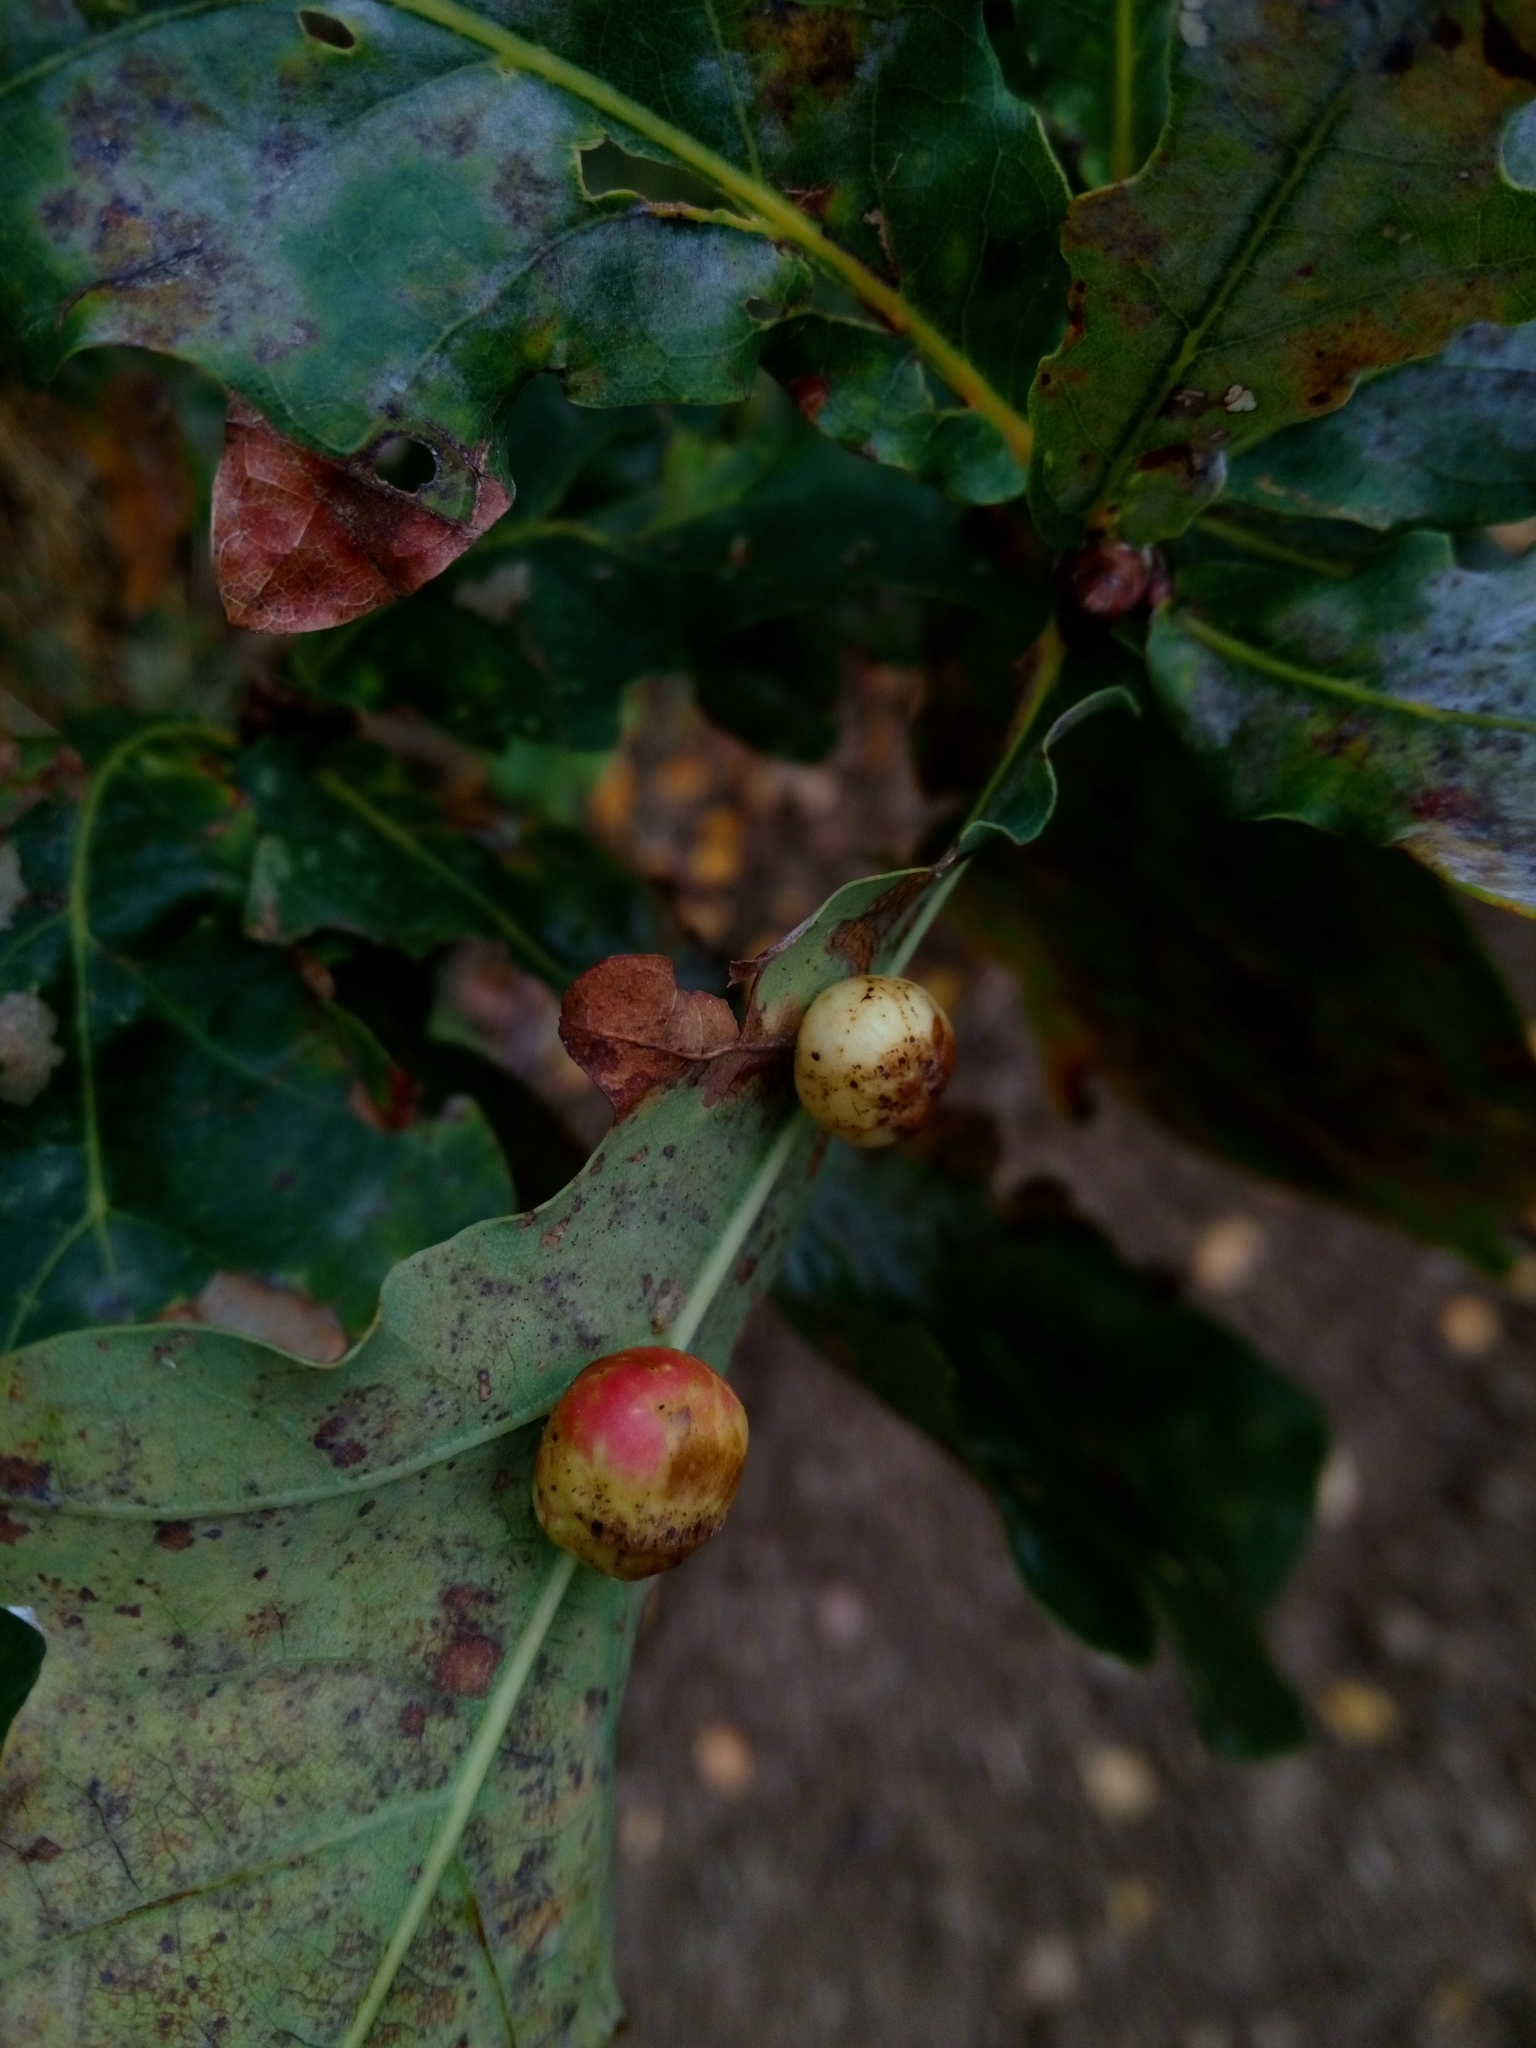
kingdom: Animalia
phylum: Arthropoda
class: Insecta
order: Hymenoptera
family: Cynipidae
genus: Cynips
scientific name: Cynips quercusfolii
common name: Cherry gall
